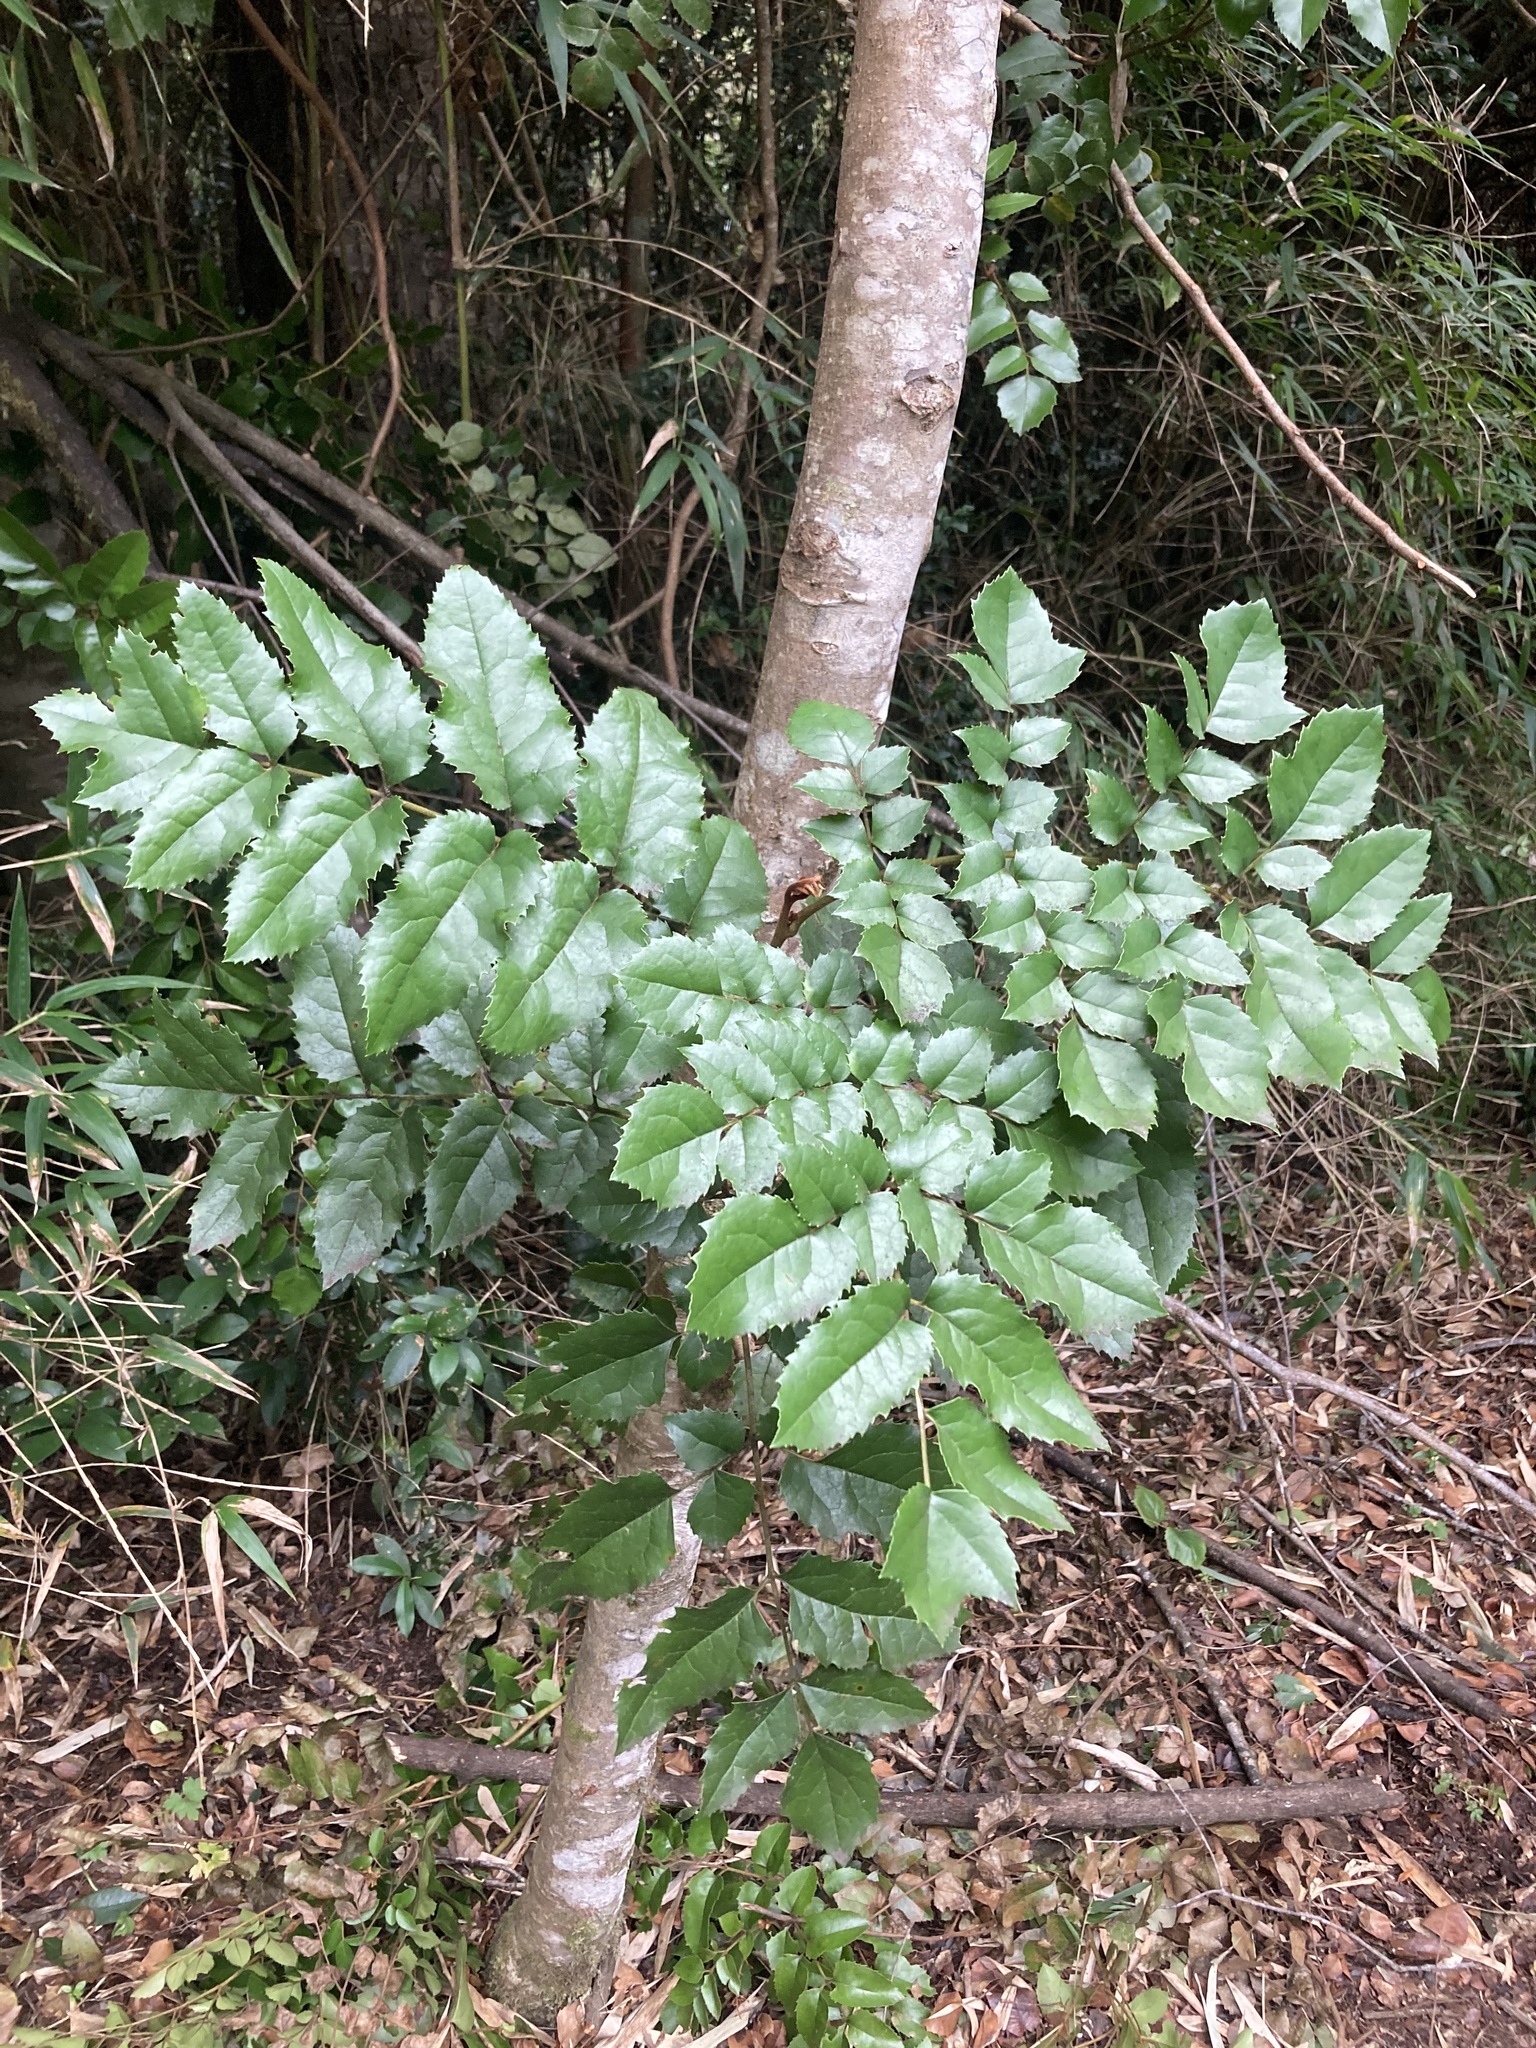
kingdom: Plantae
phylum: Tracheophyta
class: Magnoliopsida
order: Proteales
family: Proteaceae
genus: Gevuina
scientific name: Gevuina avellana
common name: Chilean hazel
